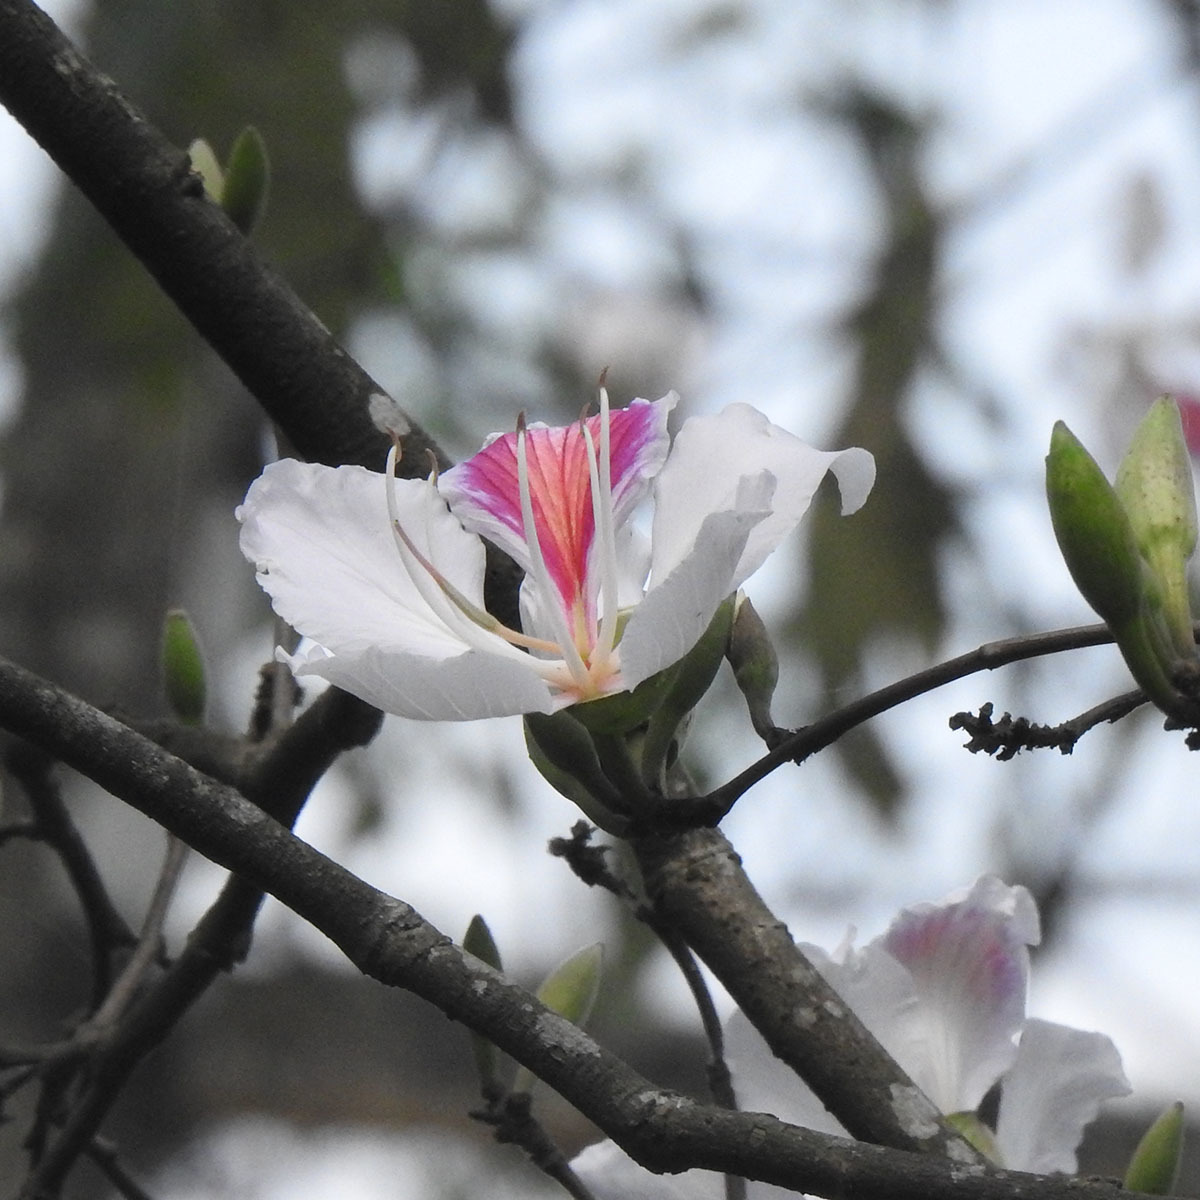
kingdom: Plantae
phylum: Tracheophyta
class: Magnoliopsida
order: Fabales
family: Fabaceae
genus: Bauhinia
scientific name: Bauhinia variegata
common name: Mountain ebony
